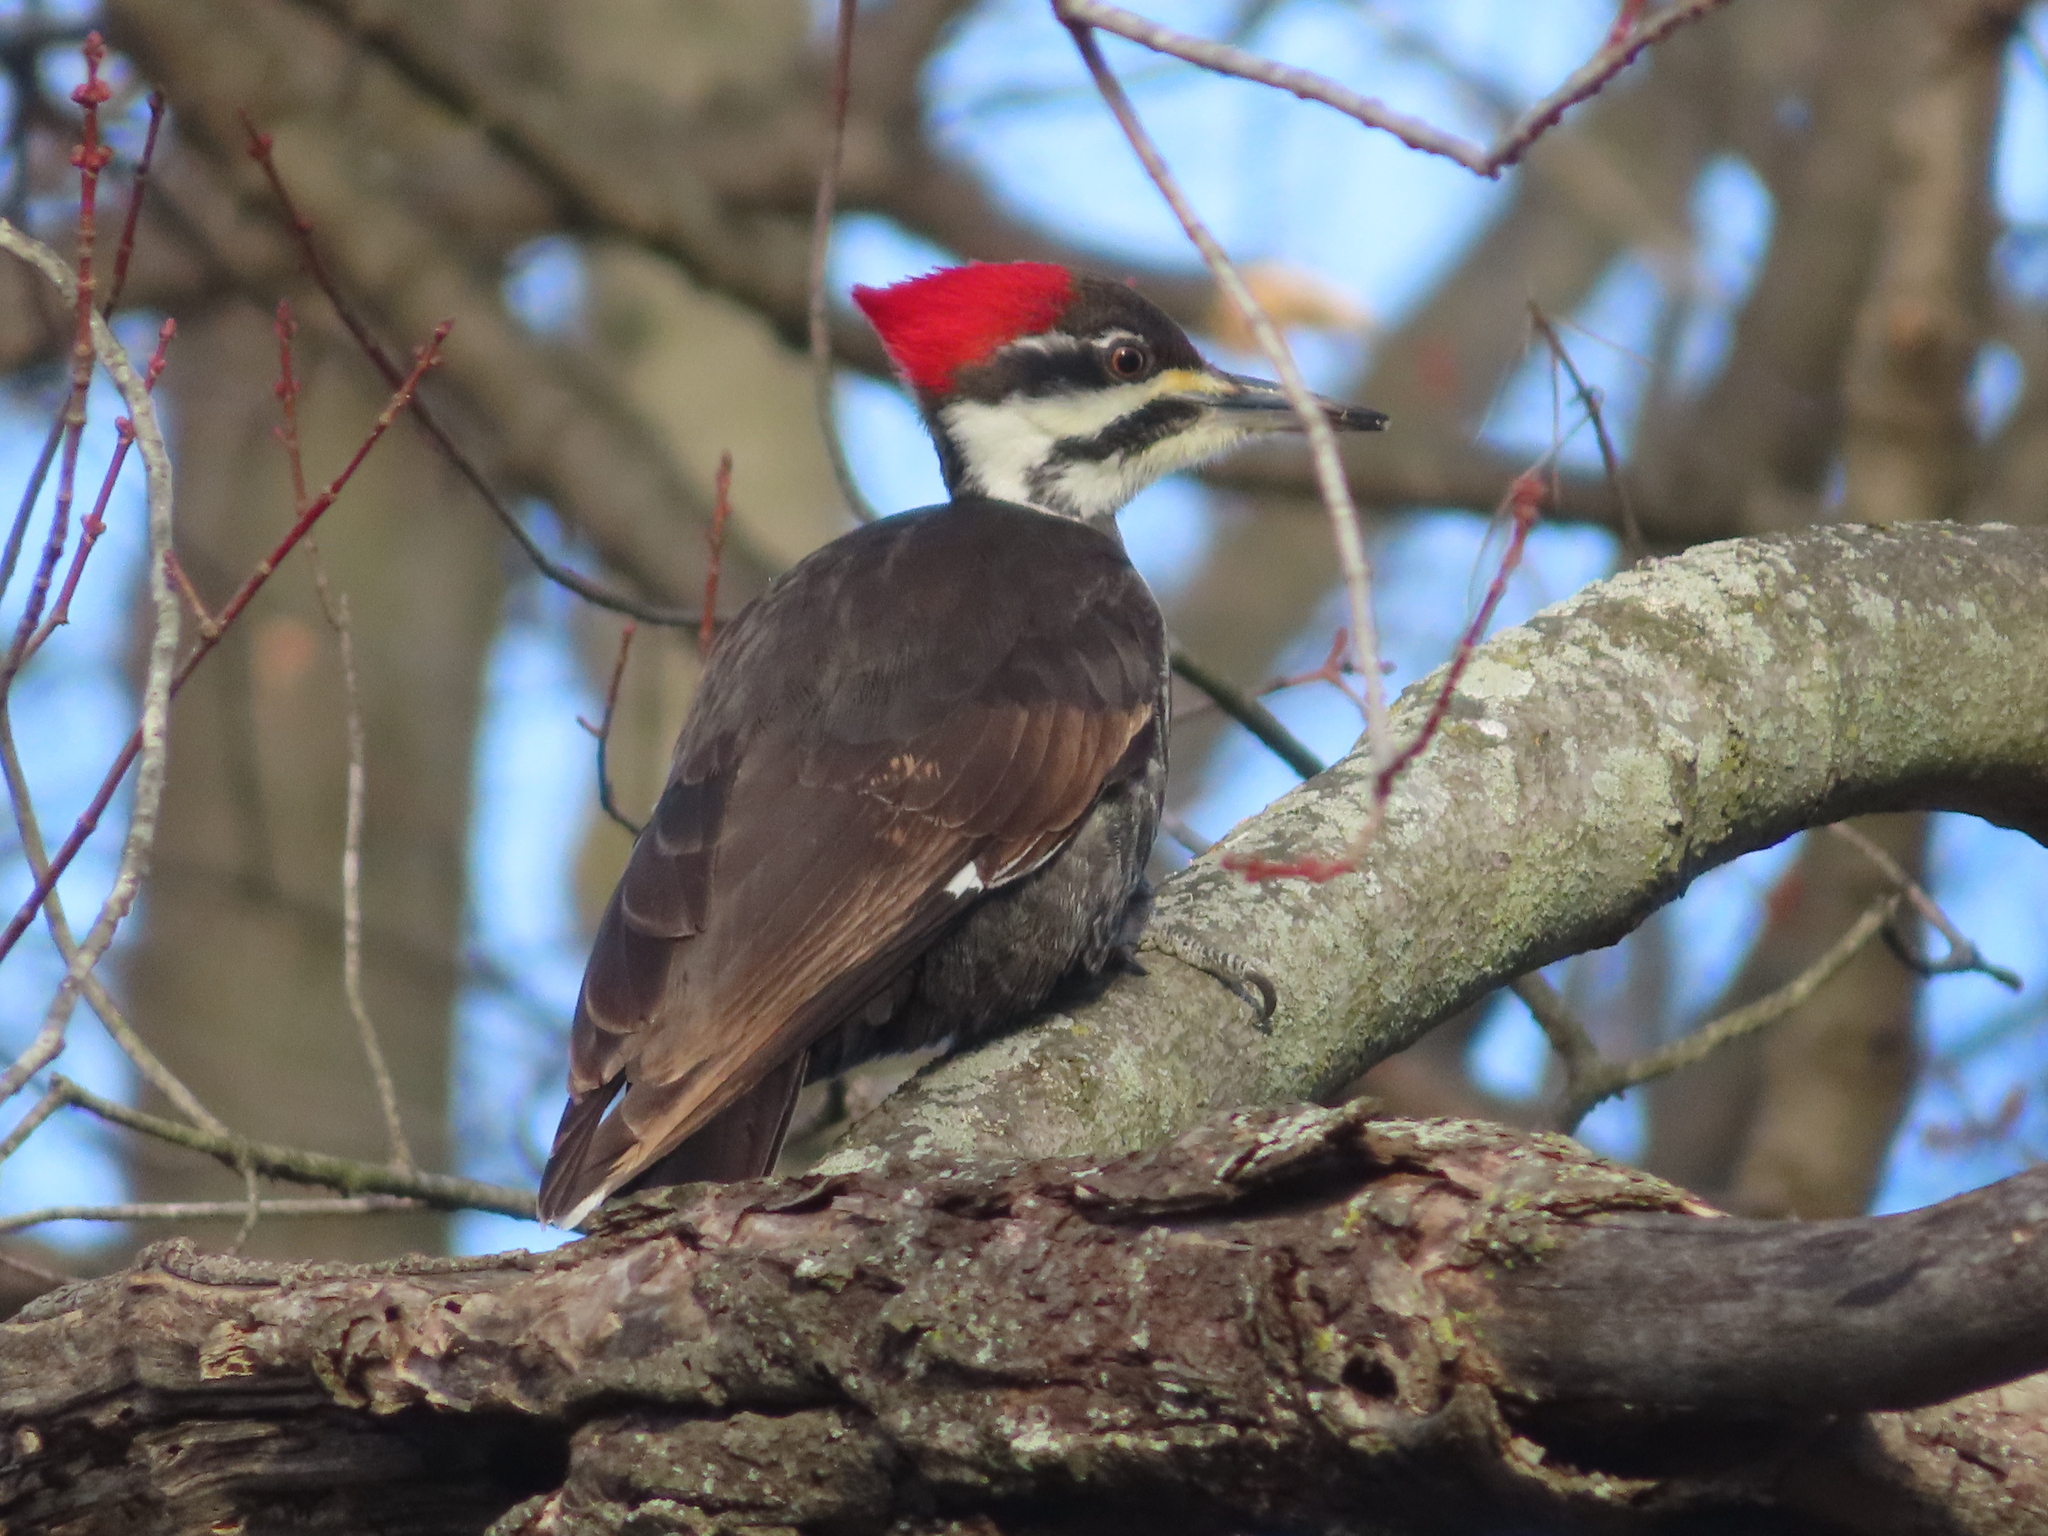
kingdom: Animalia
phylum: Chordata
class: Aves
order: Piciformes
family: Picidae
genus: Dryocopus
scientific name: Dryocopus pileatus
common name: Pileated woodpecker
